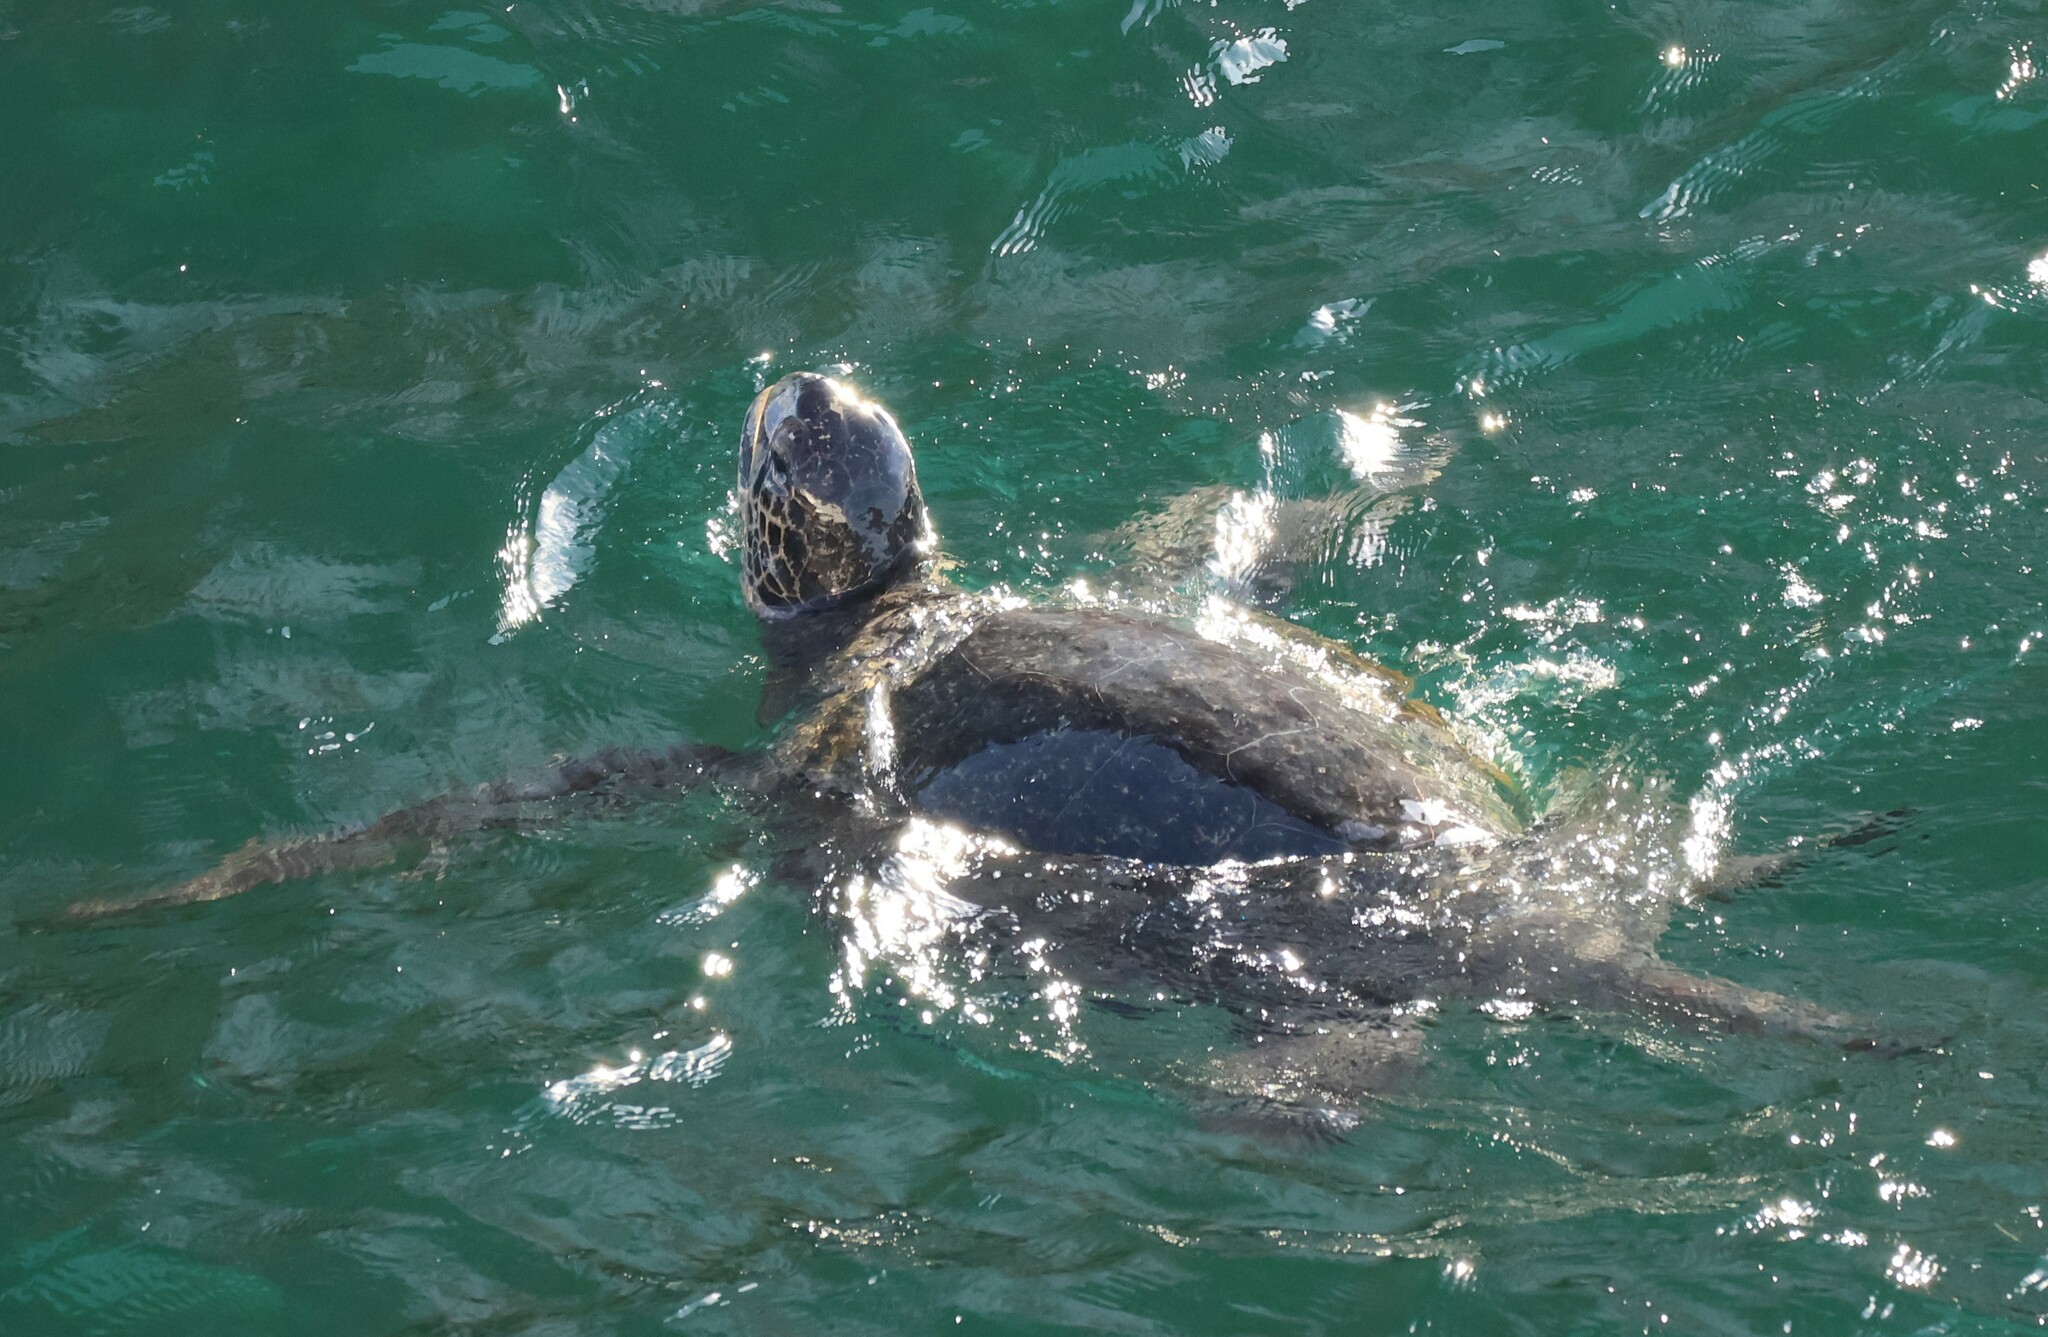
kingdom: Animalia
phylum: Chordata
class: Testudines
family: Cheloniidae
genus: Chelonia
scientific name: Chelonia mydas
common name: Green turtle
